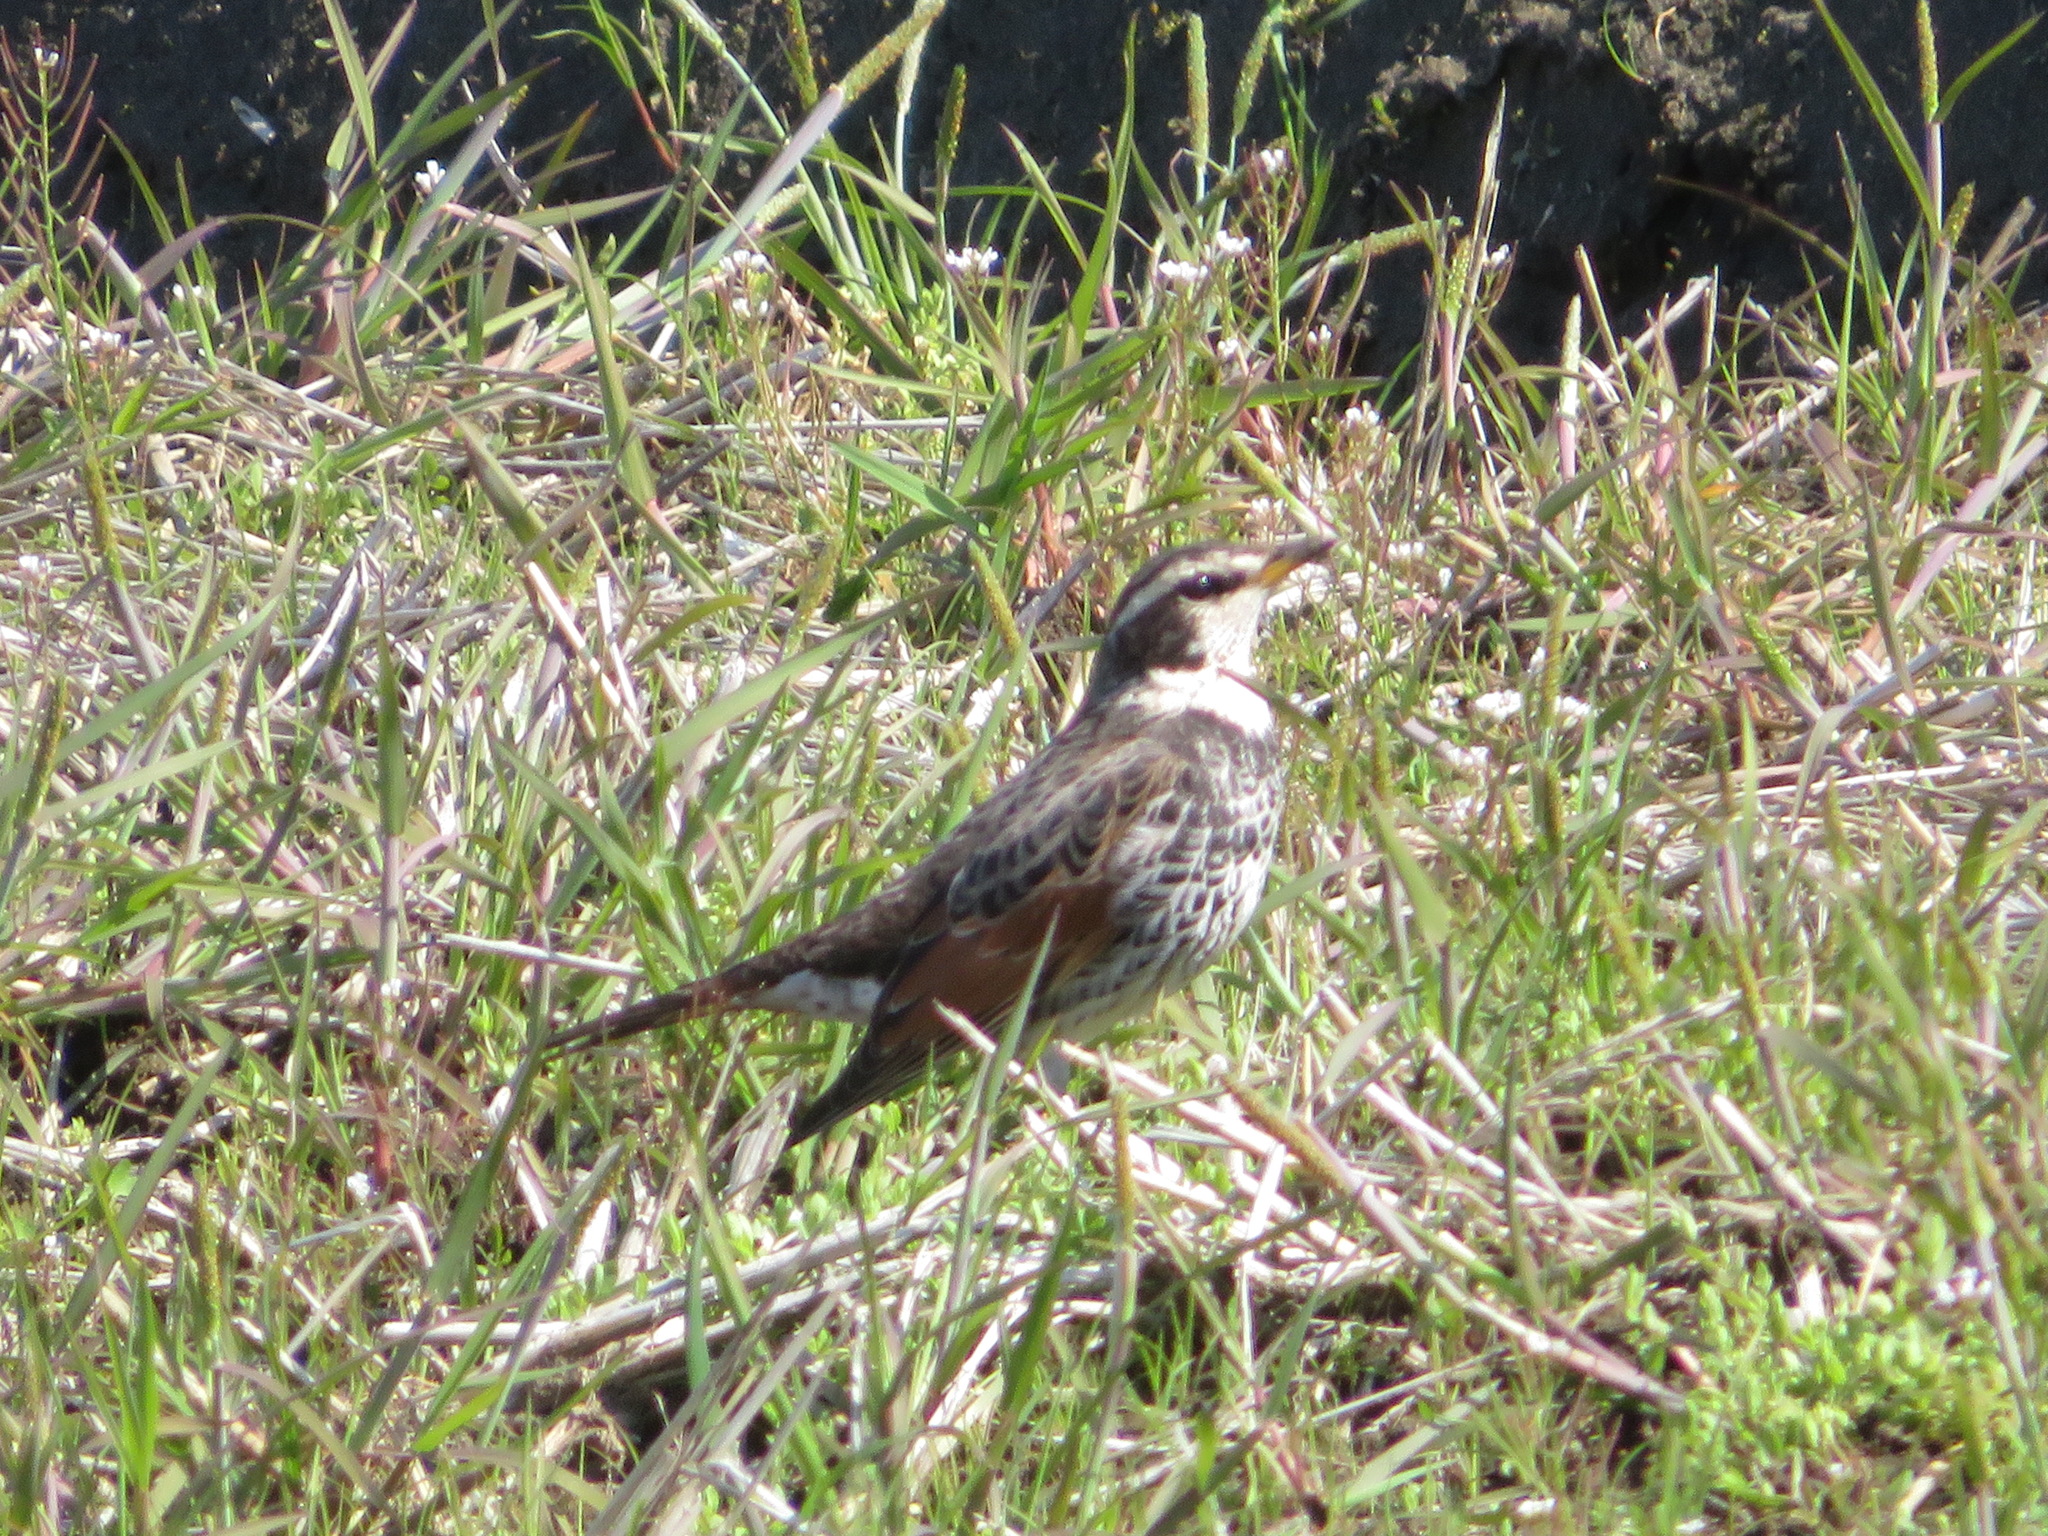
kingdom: Animalia
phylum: Chordata
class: Aves
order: Passeriformes
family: Turdidae
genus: Turdus
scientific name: Turdus eunomus
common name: Dusky thrush
